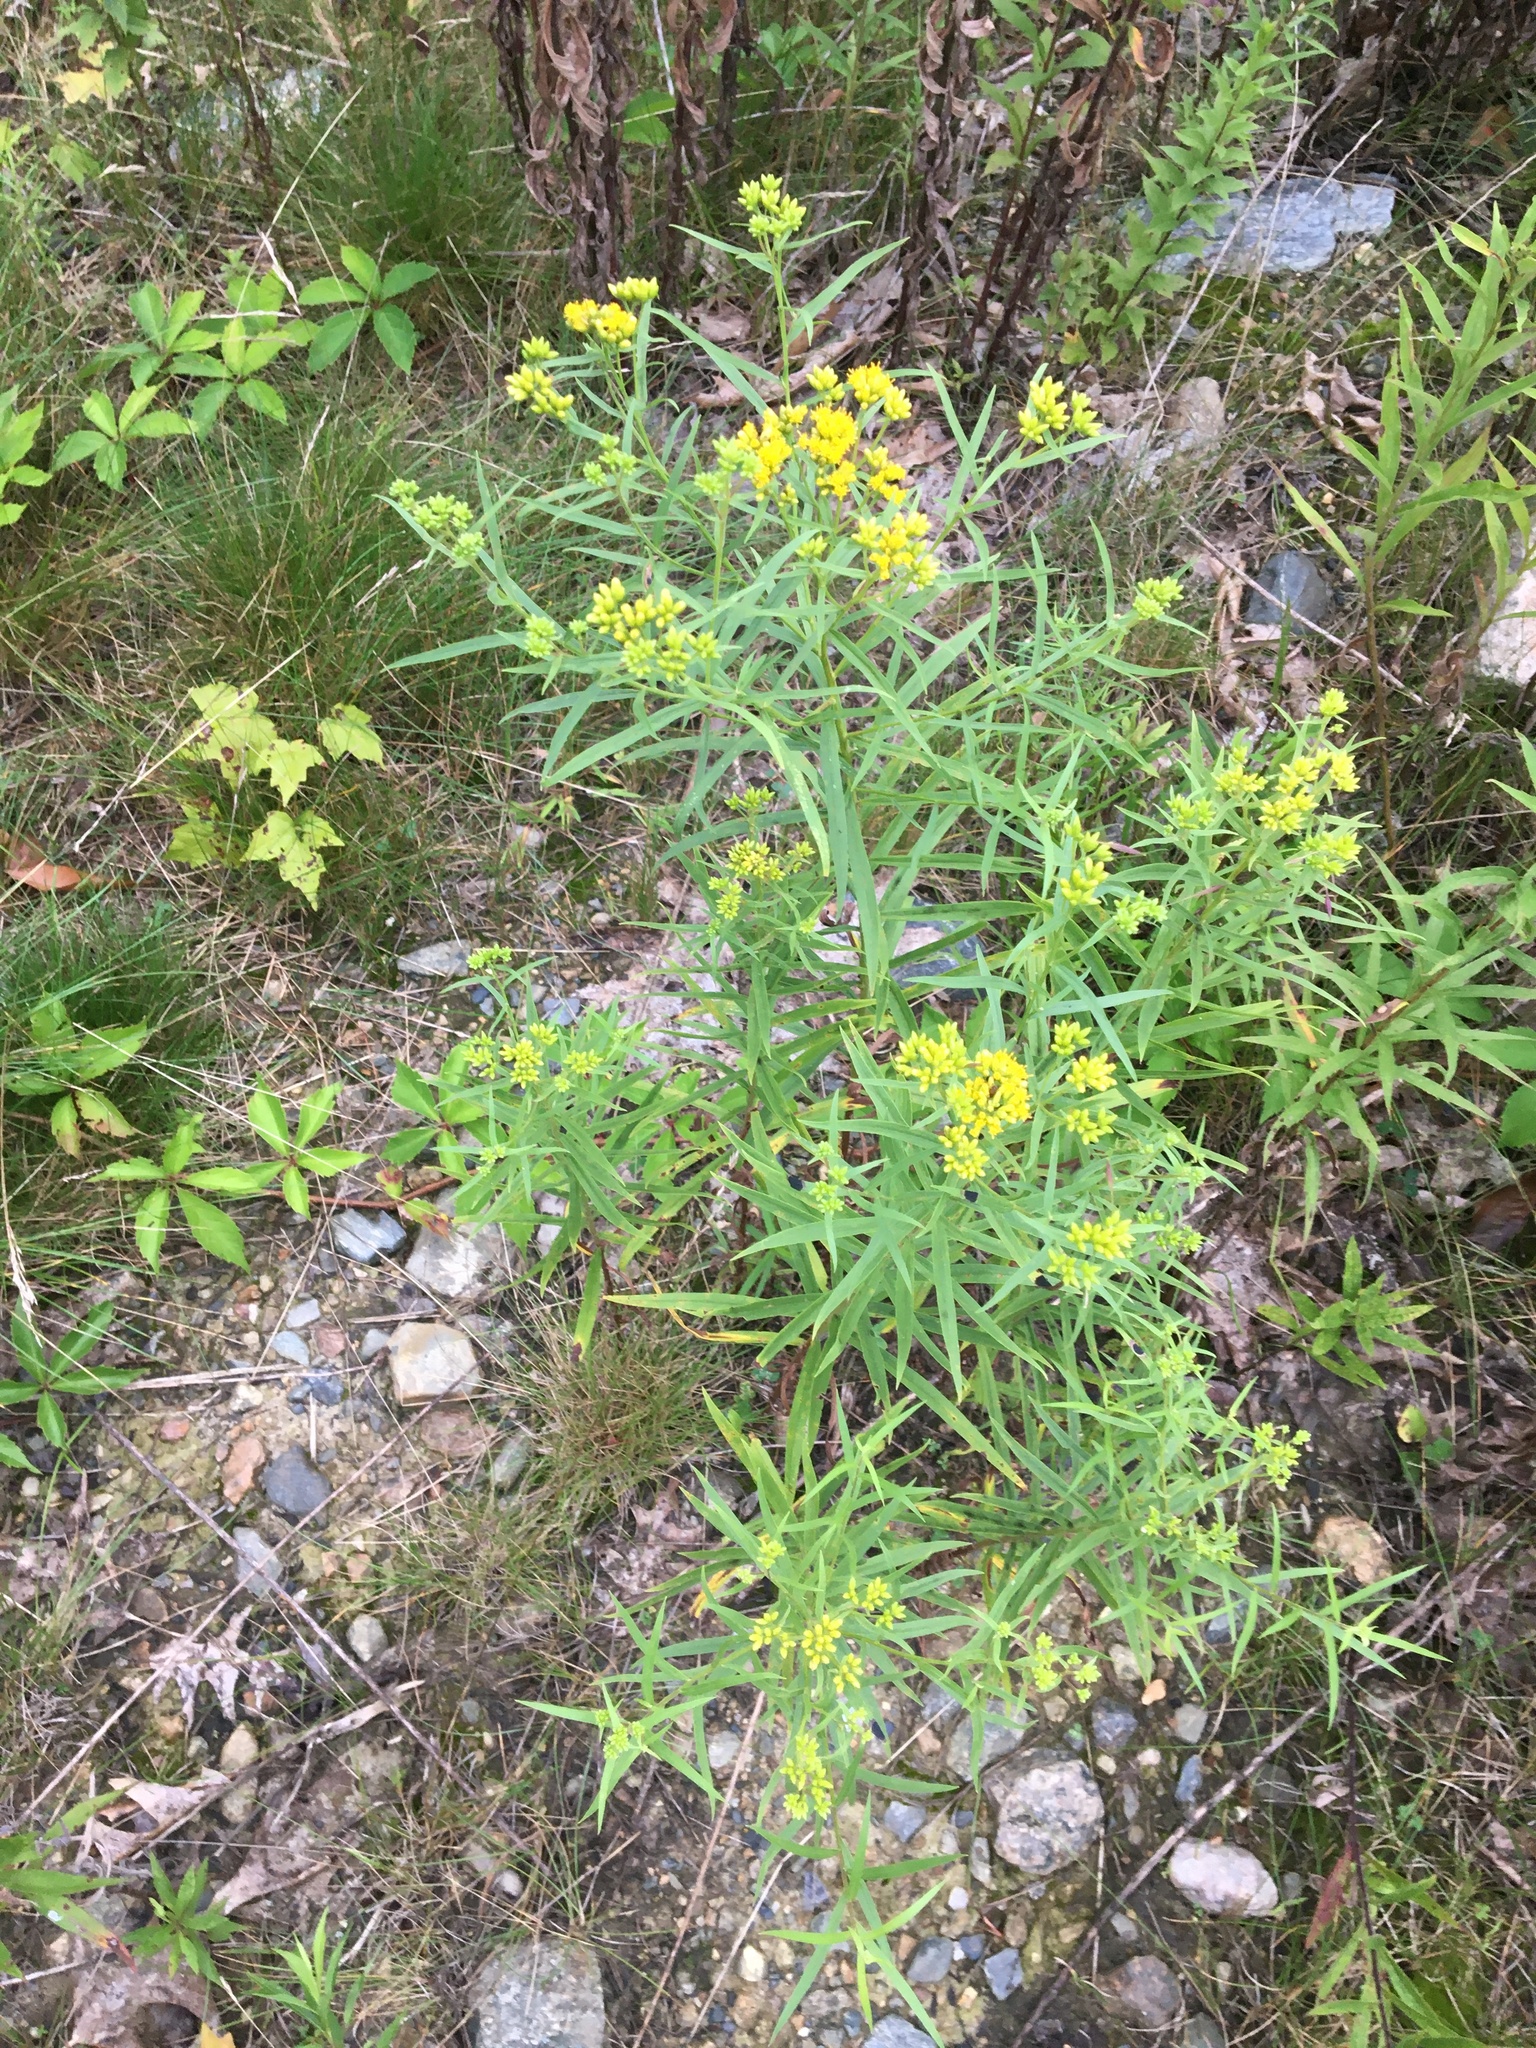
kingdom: Plantae
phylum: Tracheophyta
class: Magnoliopsida
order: Asterales
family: Asteraceae
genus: Euthamia
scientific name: Euthamia graminifolia
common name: Common goldentop
